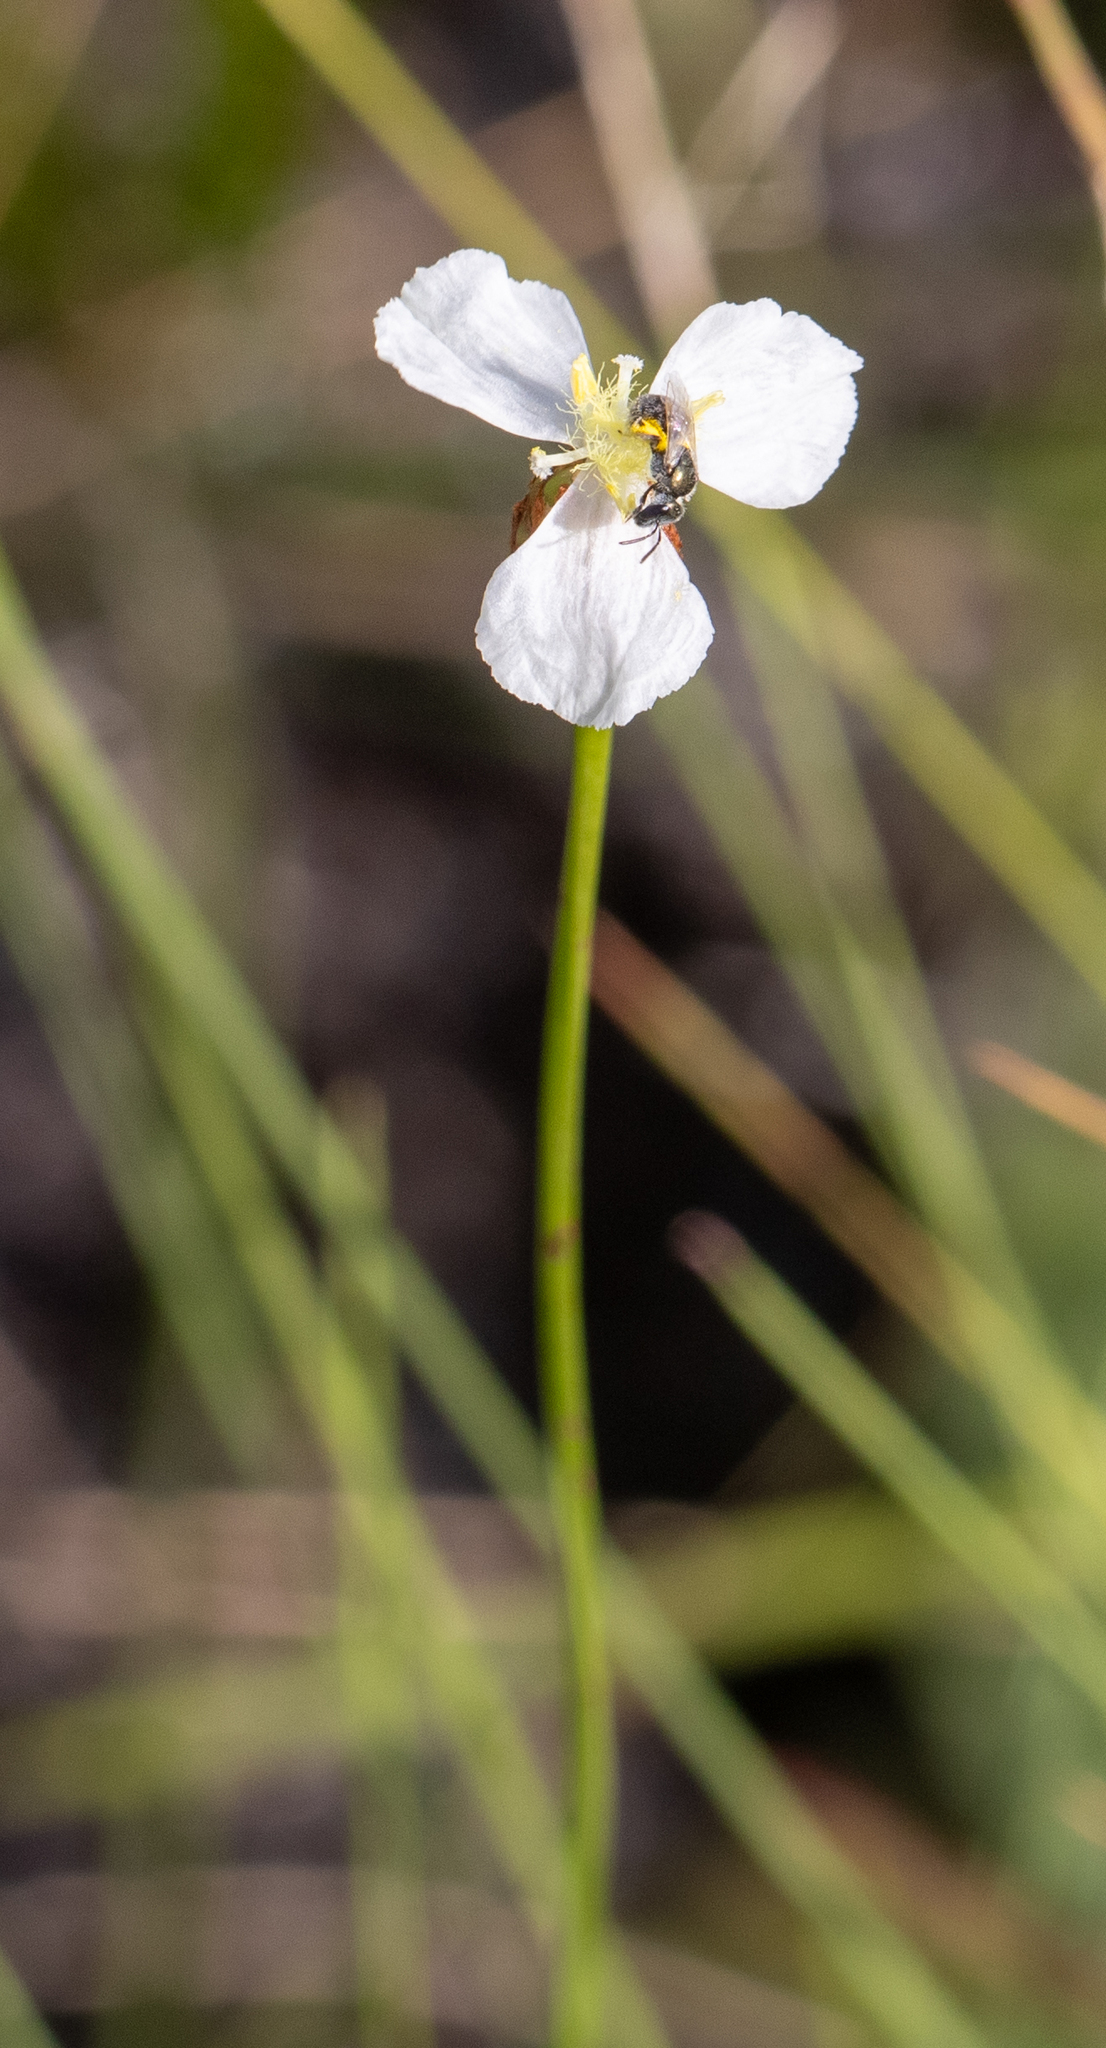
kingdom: Plantae
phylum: Tracheophyta
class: Liliopsida
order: Poales
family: Xyridaceae
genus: Xyris
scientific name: Xyris caroliniana
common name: Carolina yellow-eyed-grass
